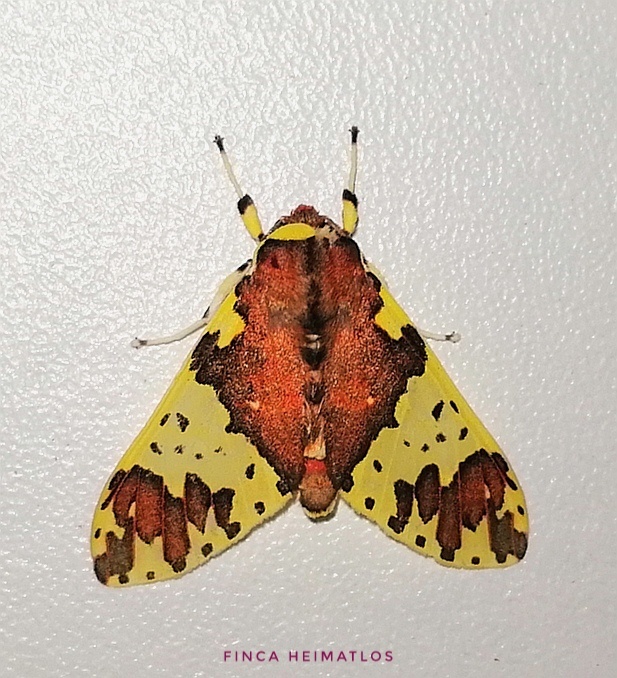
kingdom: Animalia
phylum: Arthropoda
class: Insecta
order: Lepidoptera
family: Erebidae
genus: Amaxia
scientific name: Amaxia carinosa
